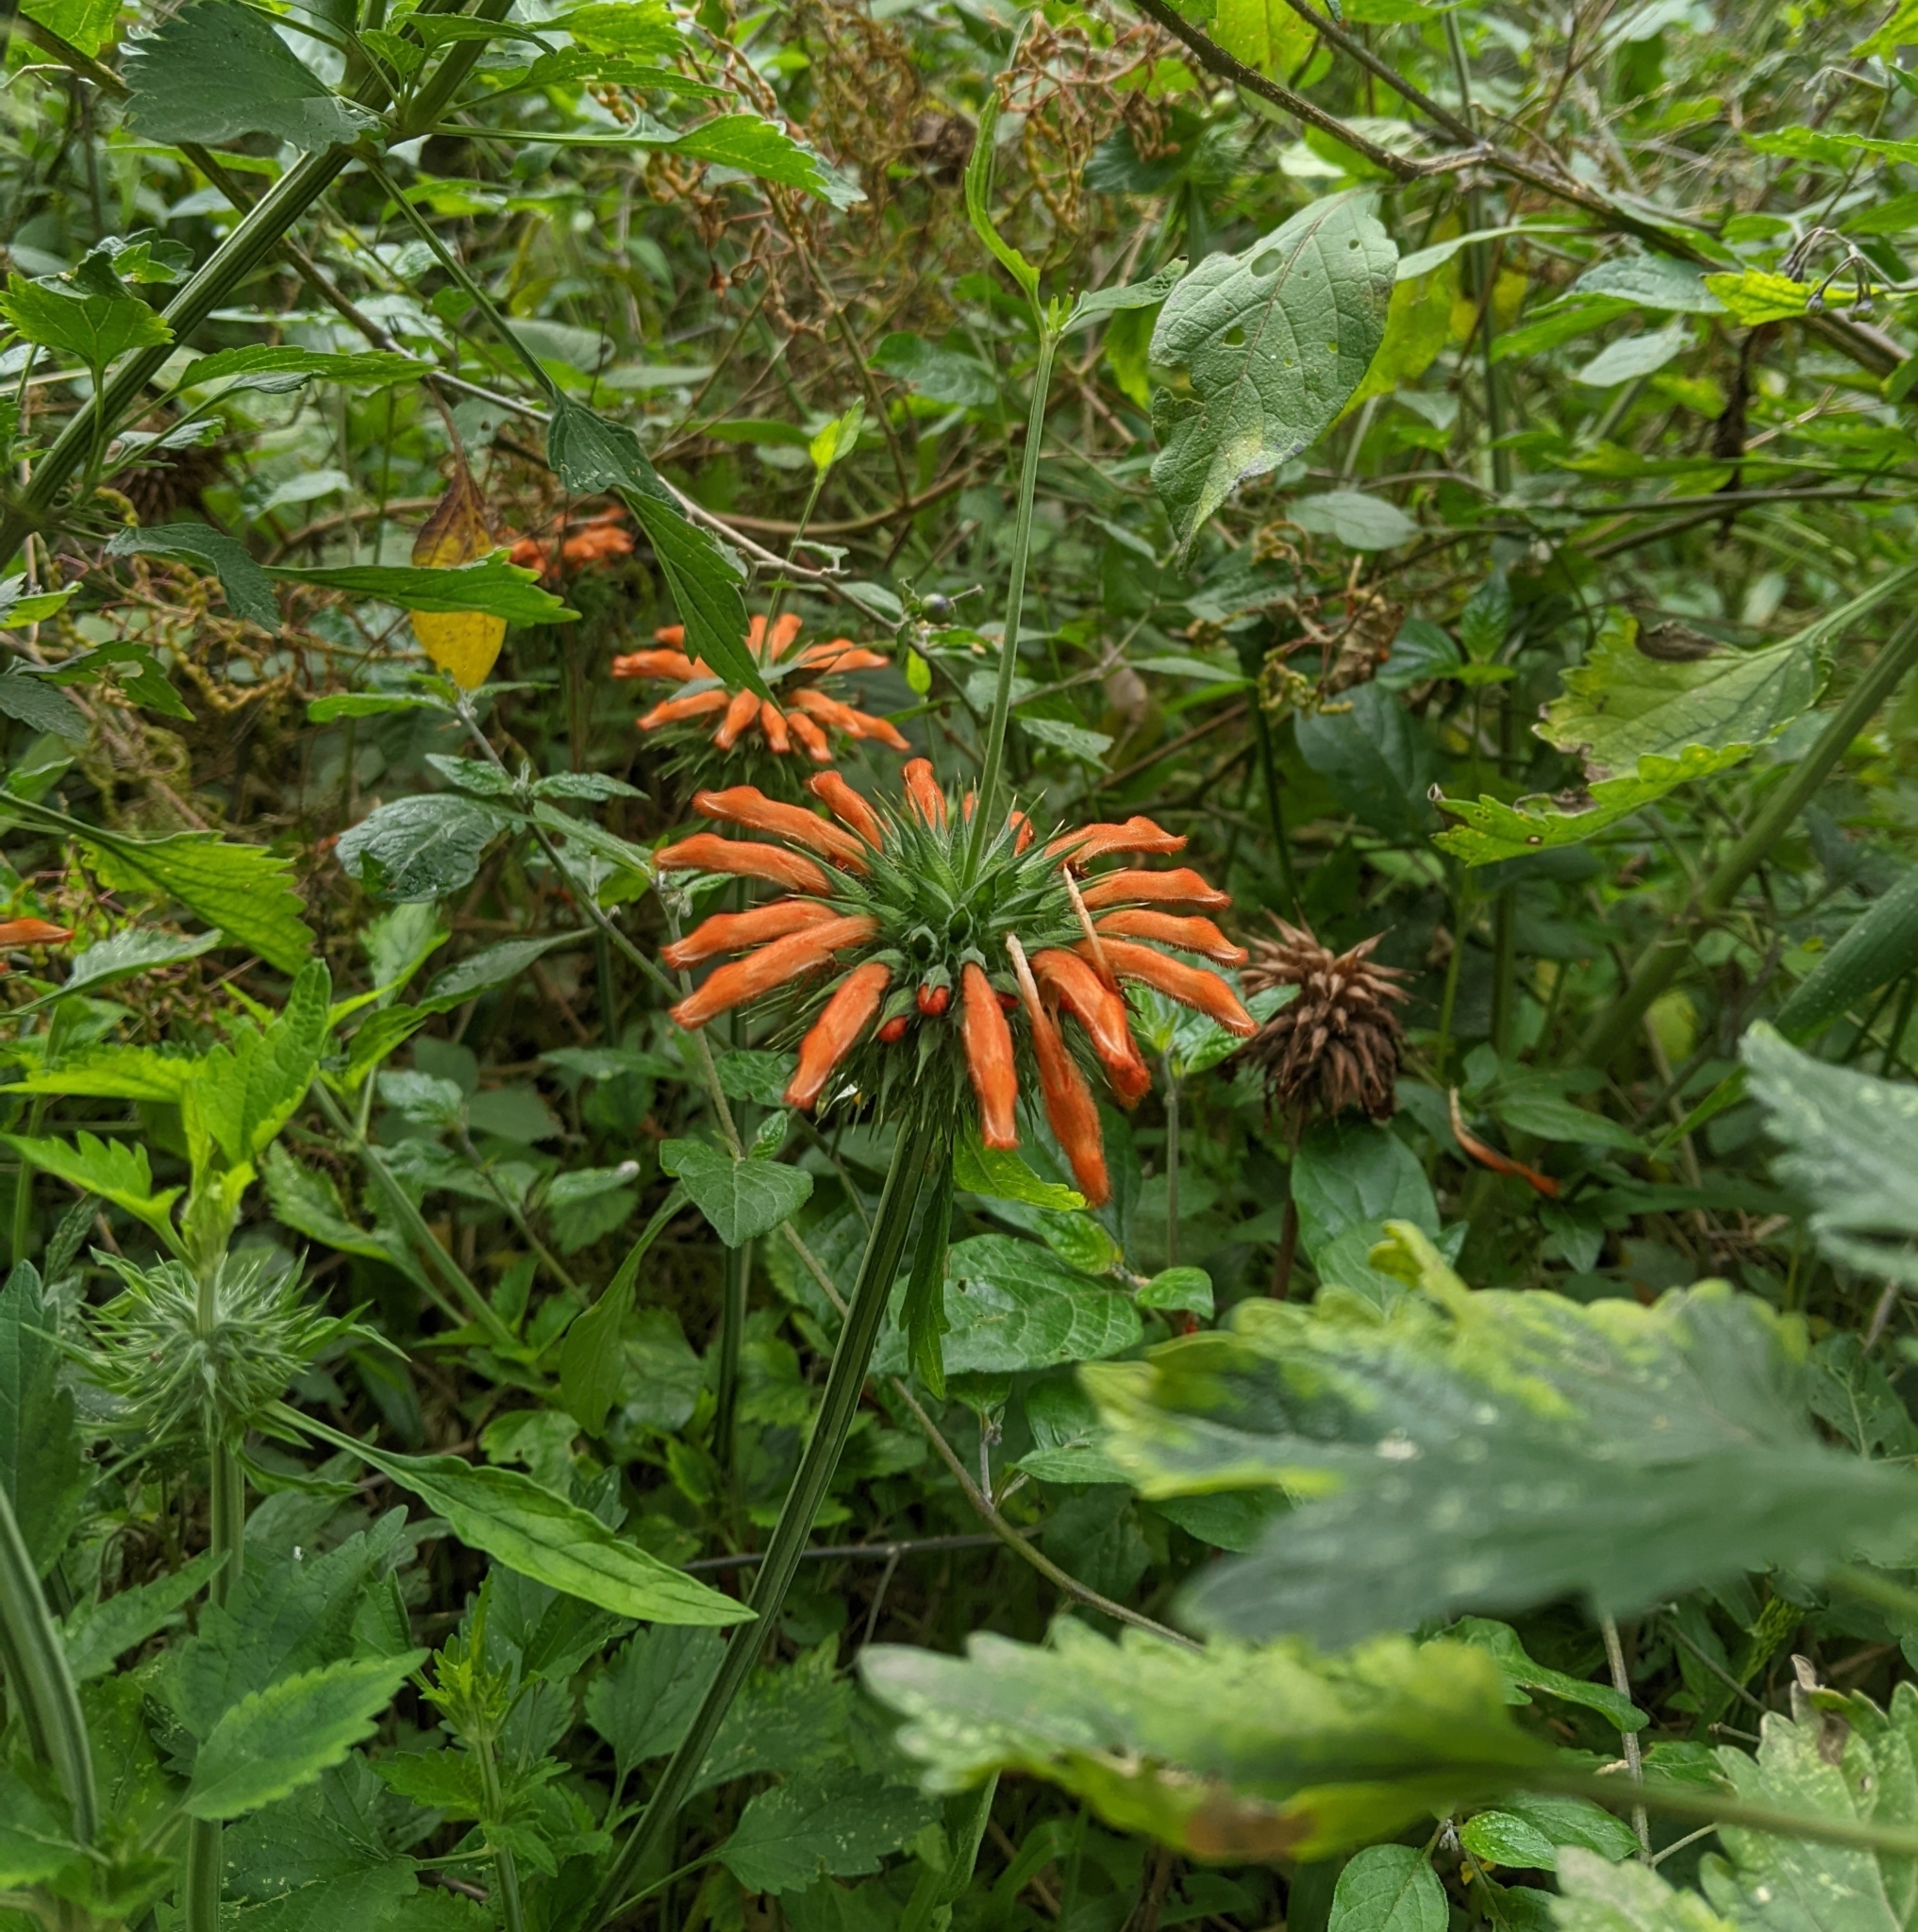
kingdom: Plantae
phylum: Tracheophyta
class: Magnoliopsida
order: Lamiales
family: Lamiaceae
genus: Leonotis
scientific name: Leonotis nepetifolia
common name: Christmas candlestick
